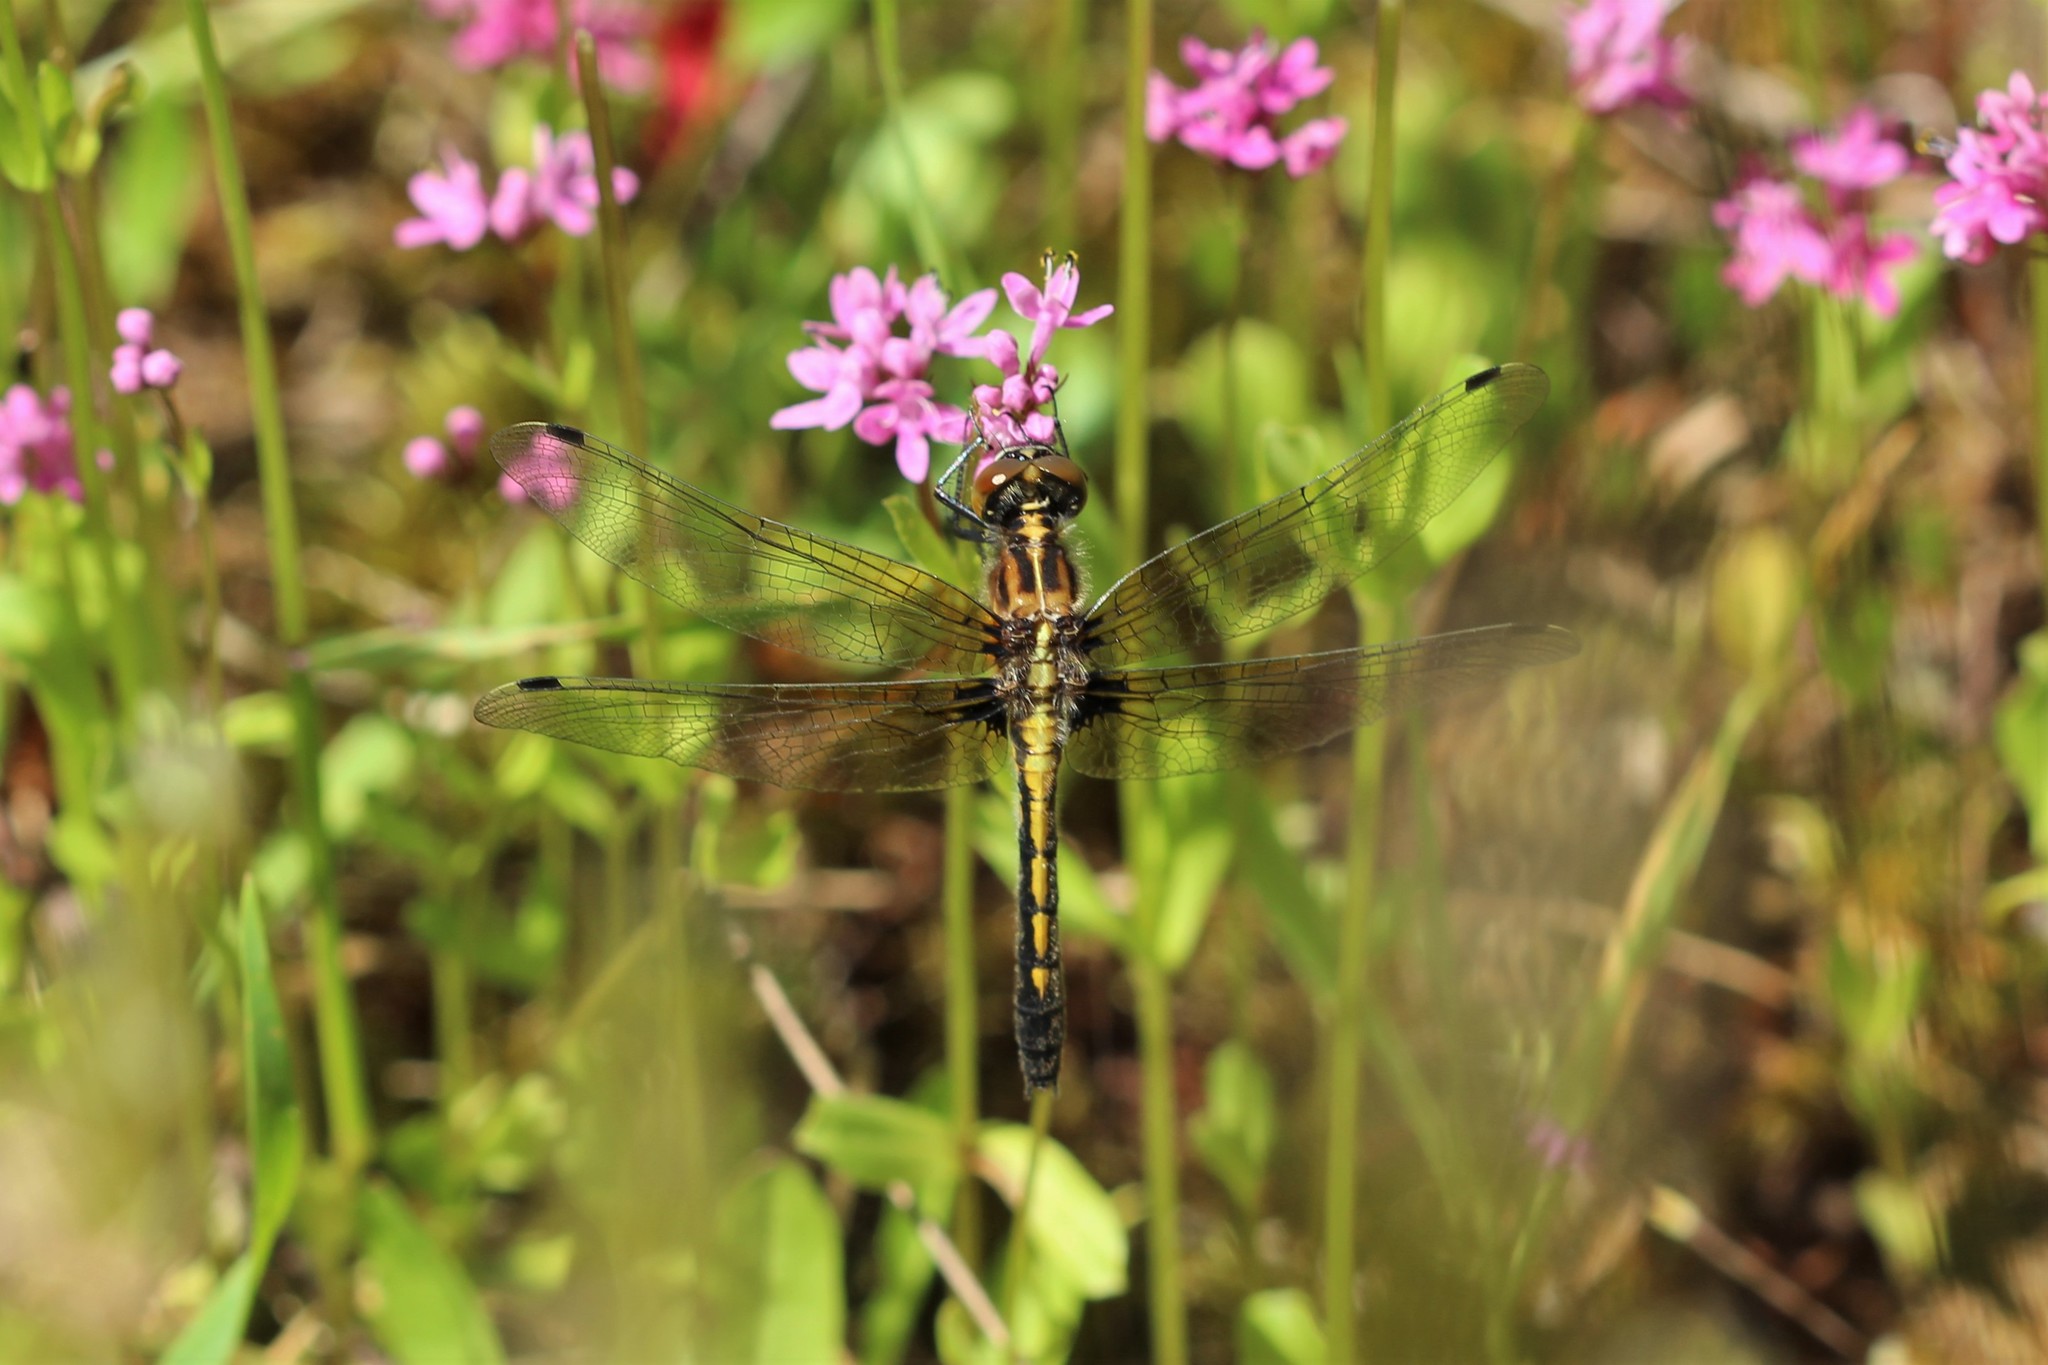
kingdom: Animalia
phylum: Arthropoda
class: Insecta
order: Odonata
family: Libellulidae
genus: Leucorrhinia
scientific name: Leucorrhinia intacta
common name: Dot-tailed whiteface
